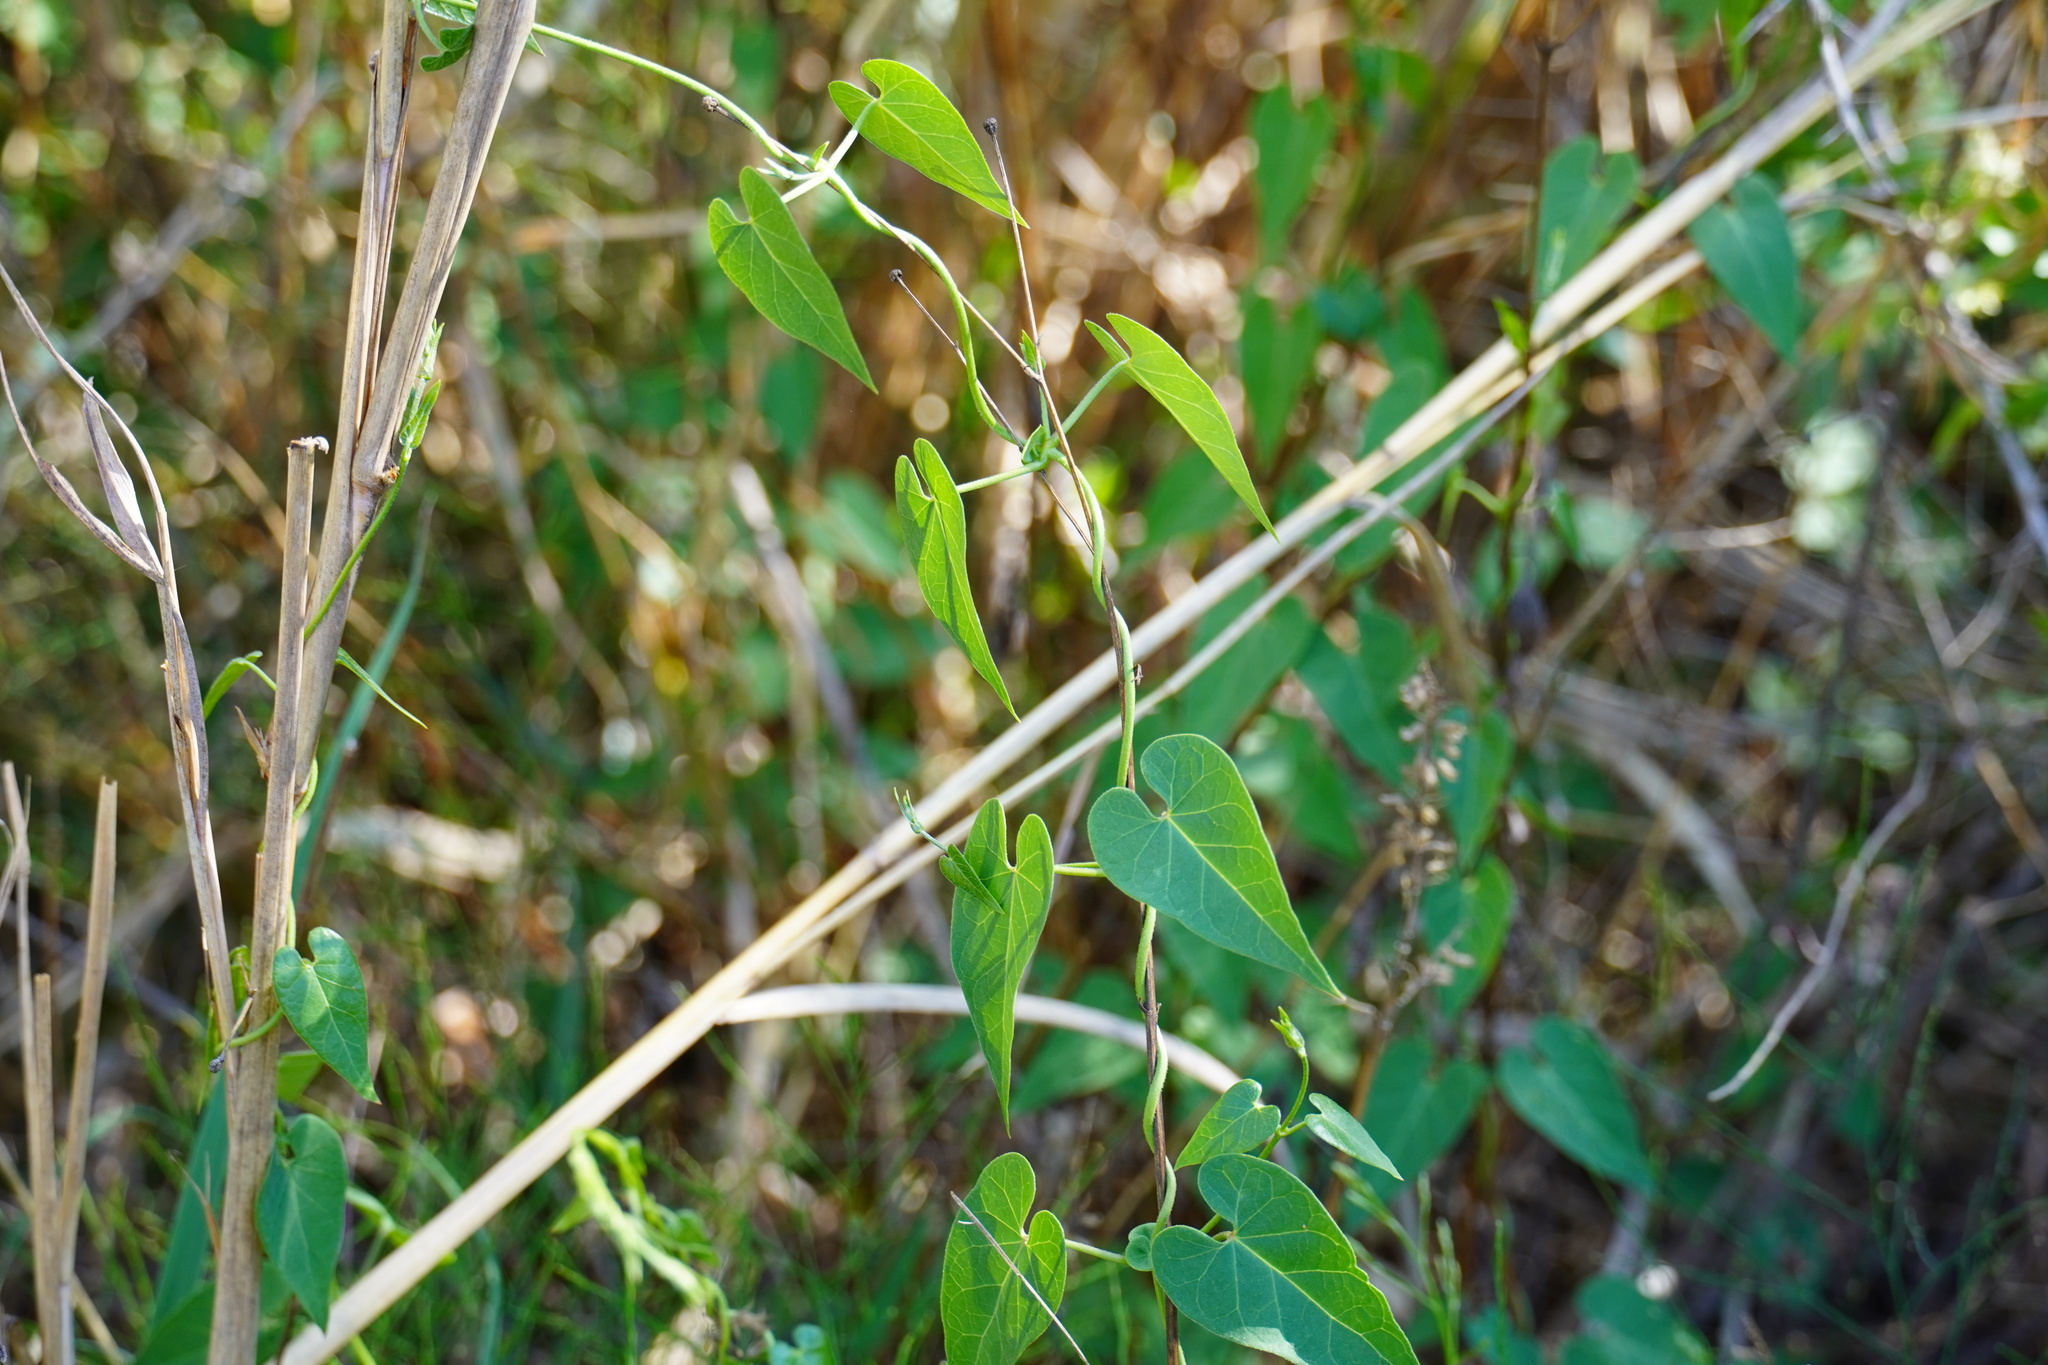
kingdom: Plantae
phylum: Tracheophyta
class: Magnoliopsida
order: Gentianales
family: Apocynaceae
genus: Cynanchum
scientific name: Cynanchum
